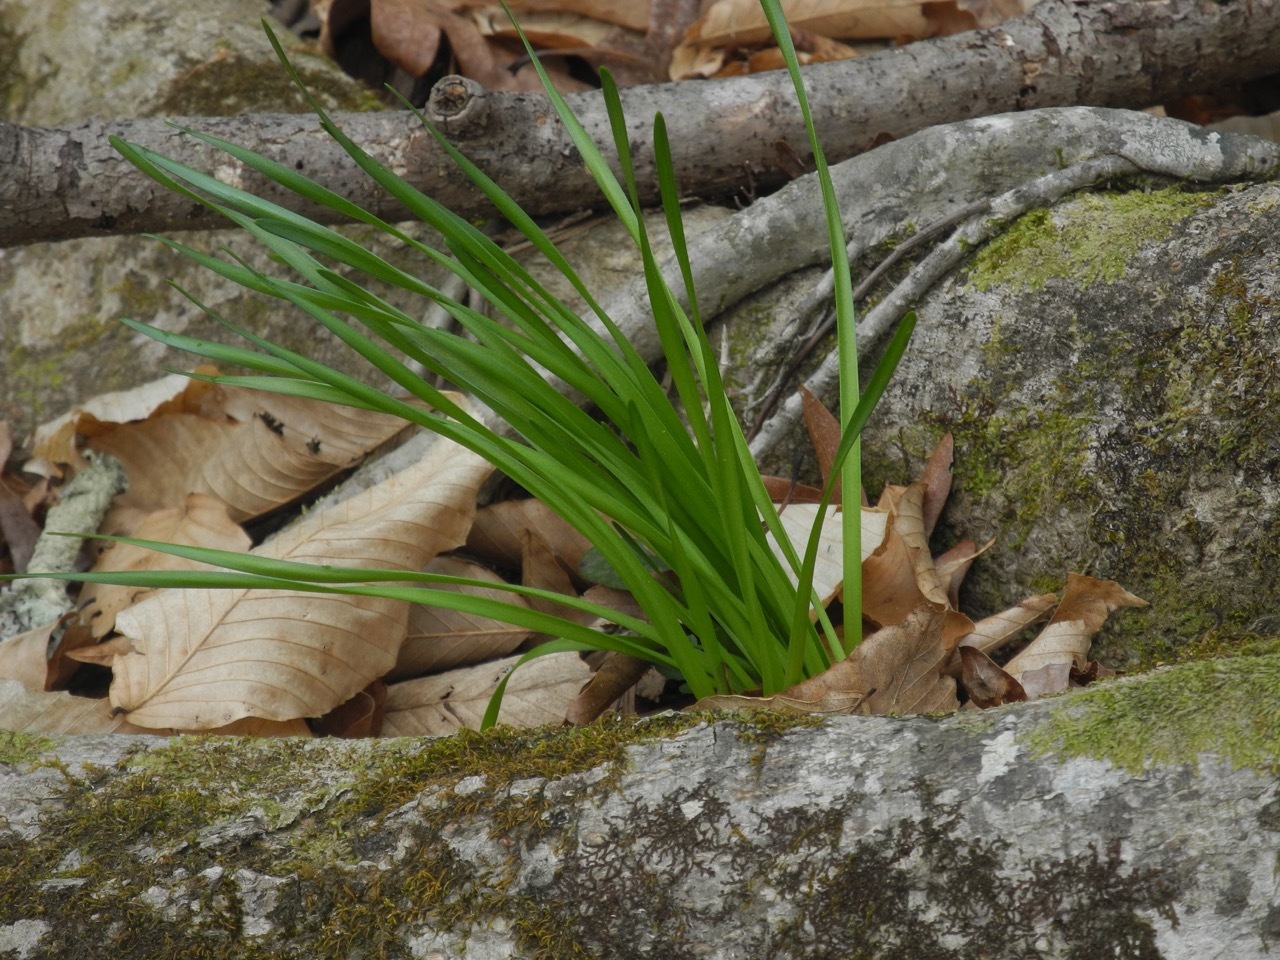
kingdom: Plantae
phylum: Tracheophyta
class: Liliopsida
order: Asparagales
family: Amaryllidaceae
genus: Zephyranthes
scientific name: Zephyranthes atamasco
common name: Atamasco lily
